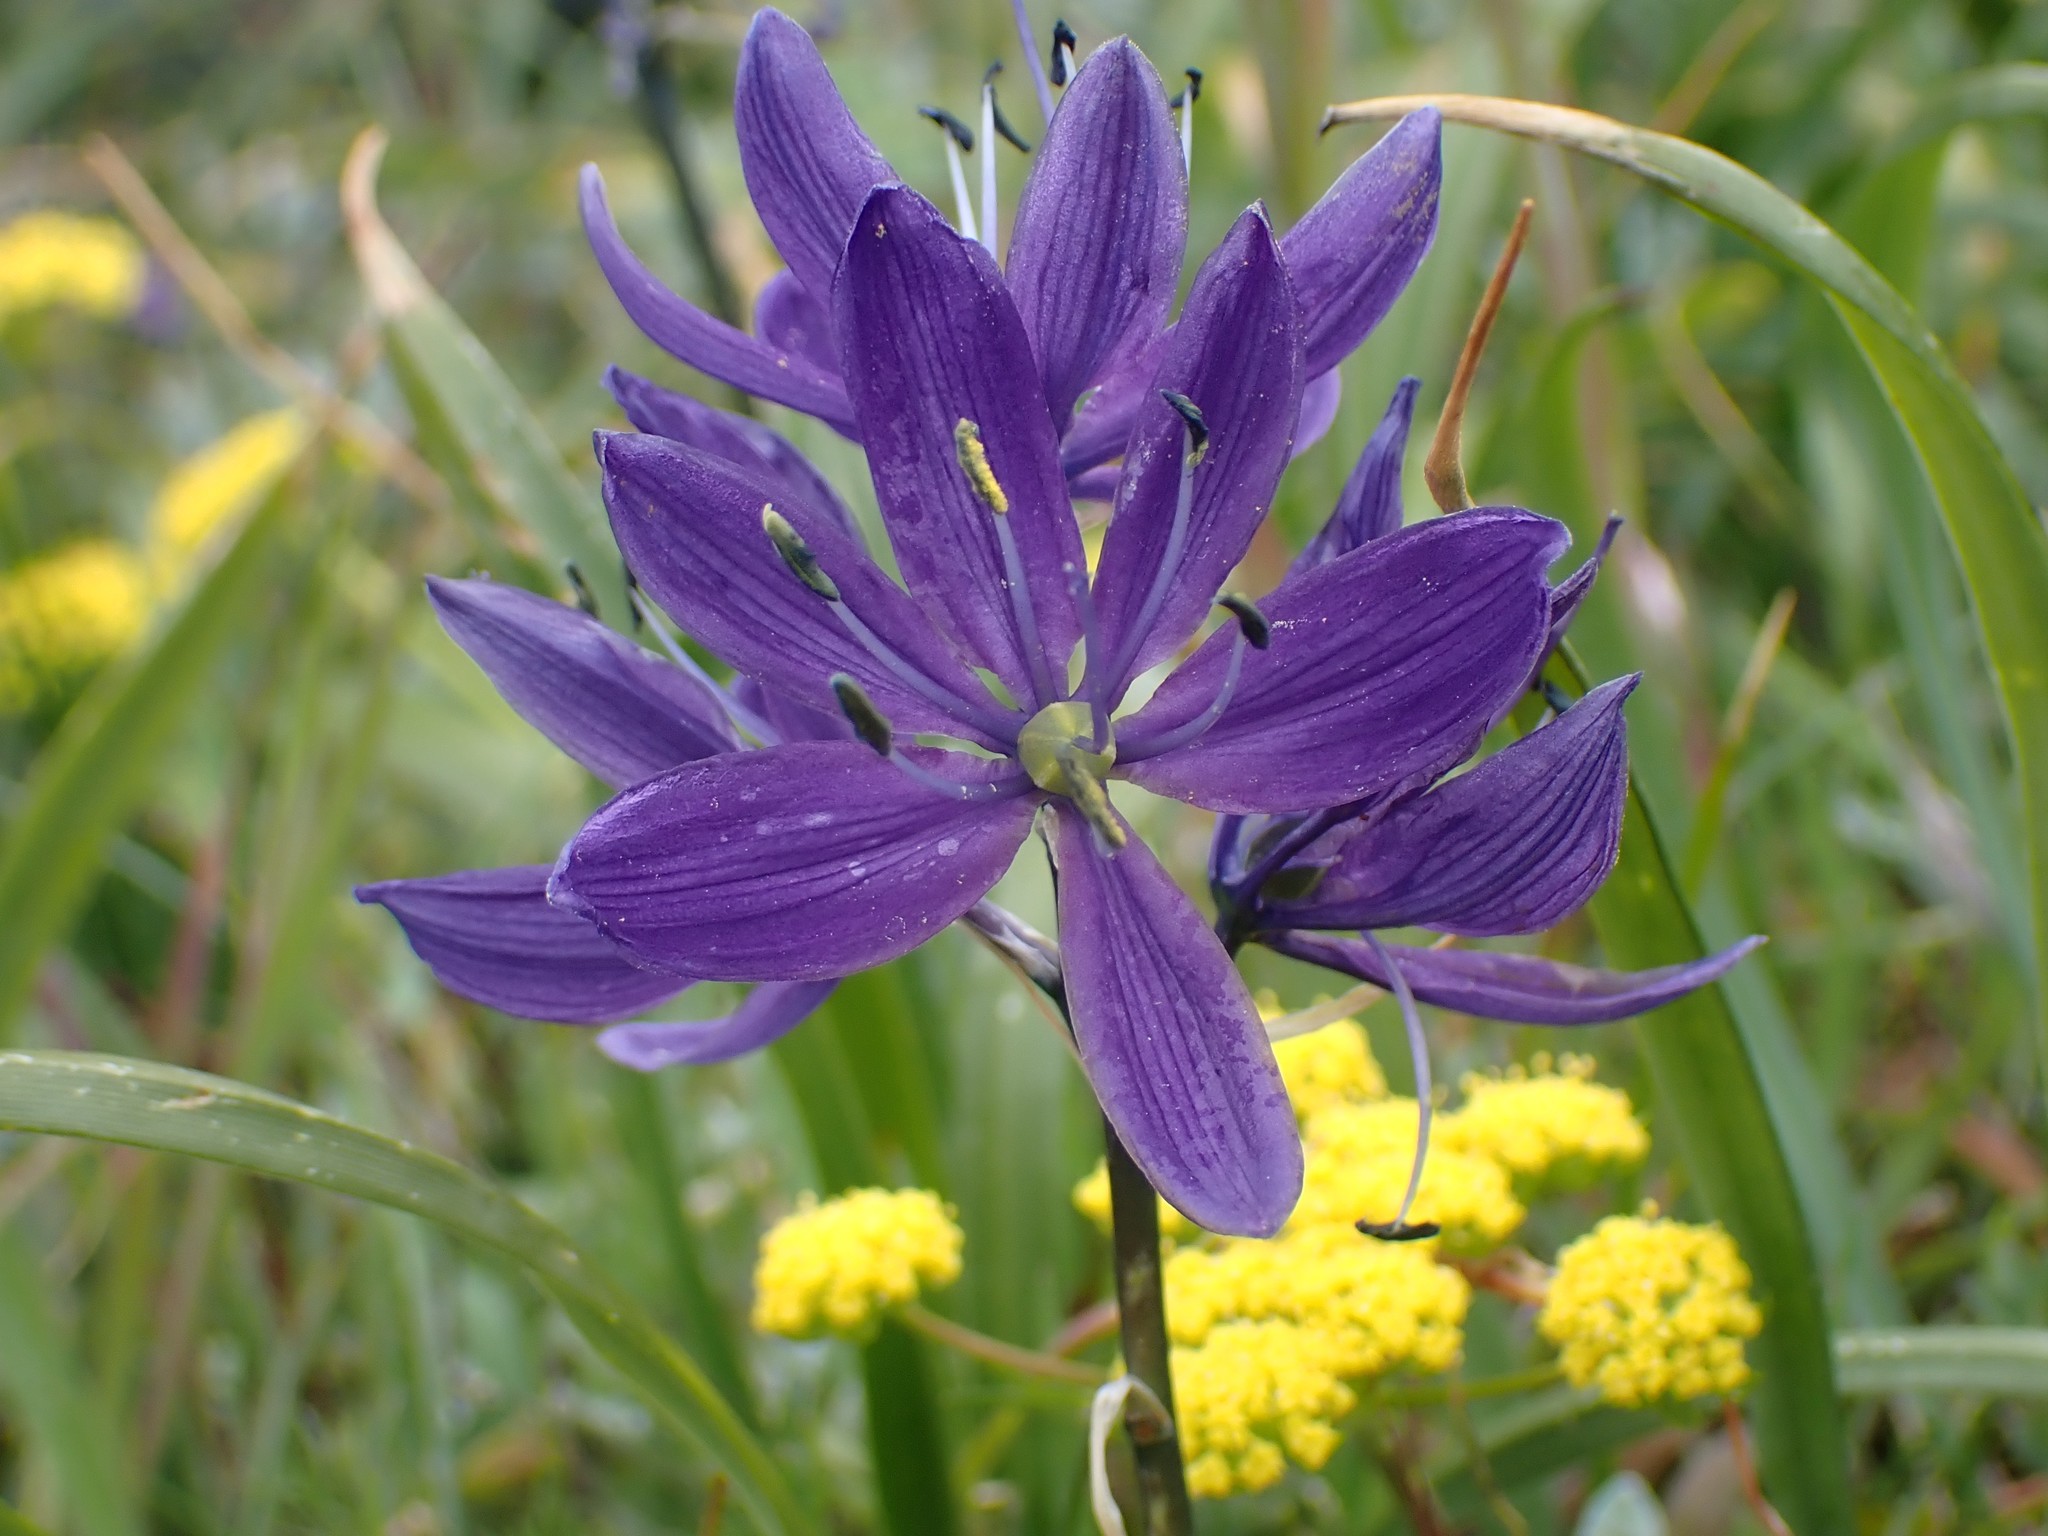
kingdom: Plantae
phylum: Tracheophyta
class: Liliopsida
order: Asparagales
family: Asparagaceae
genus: Camassia
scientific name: Camassia quamash
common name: Common camas
